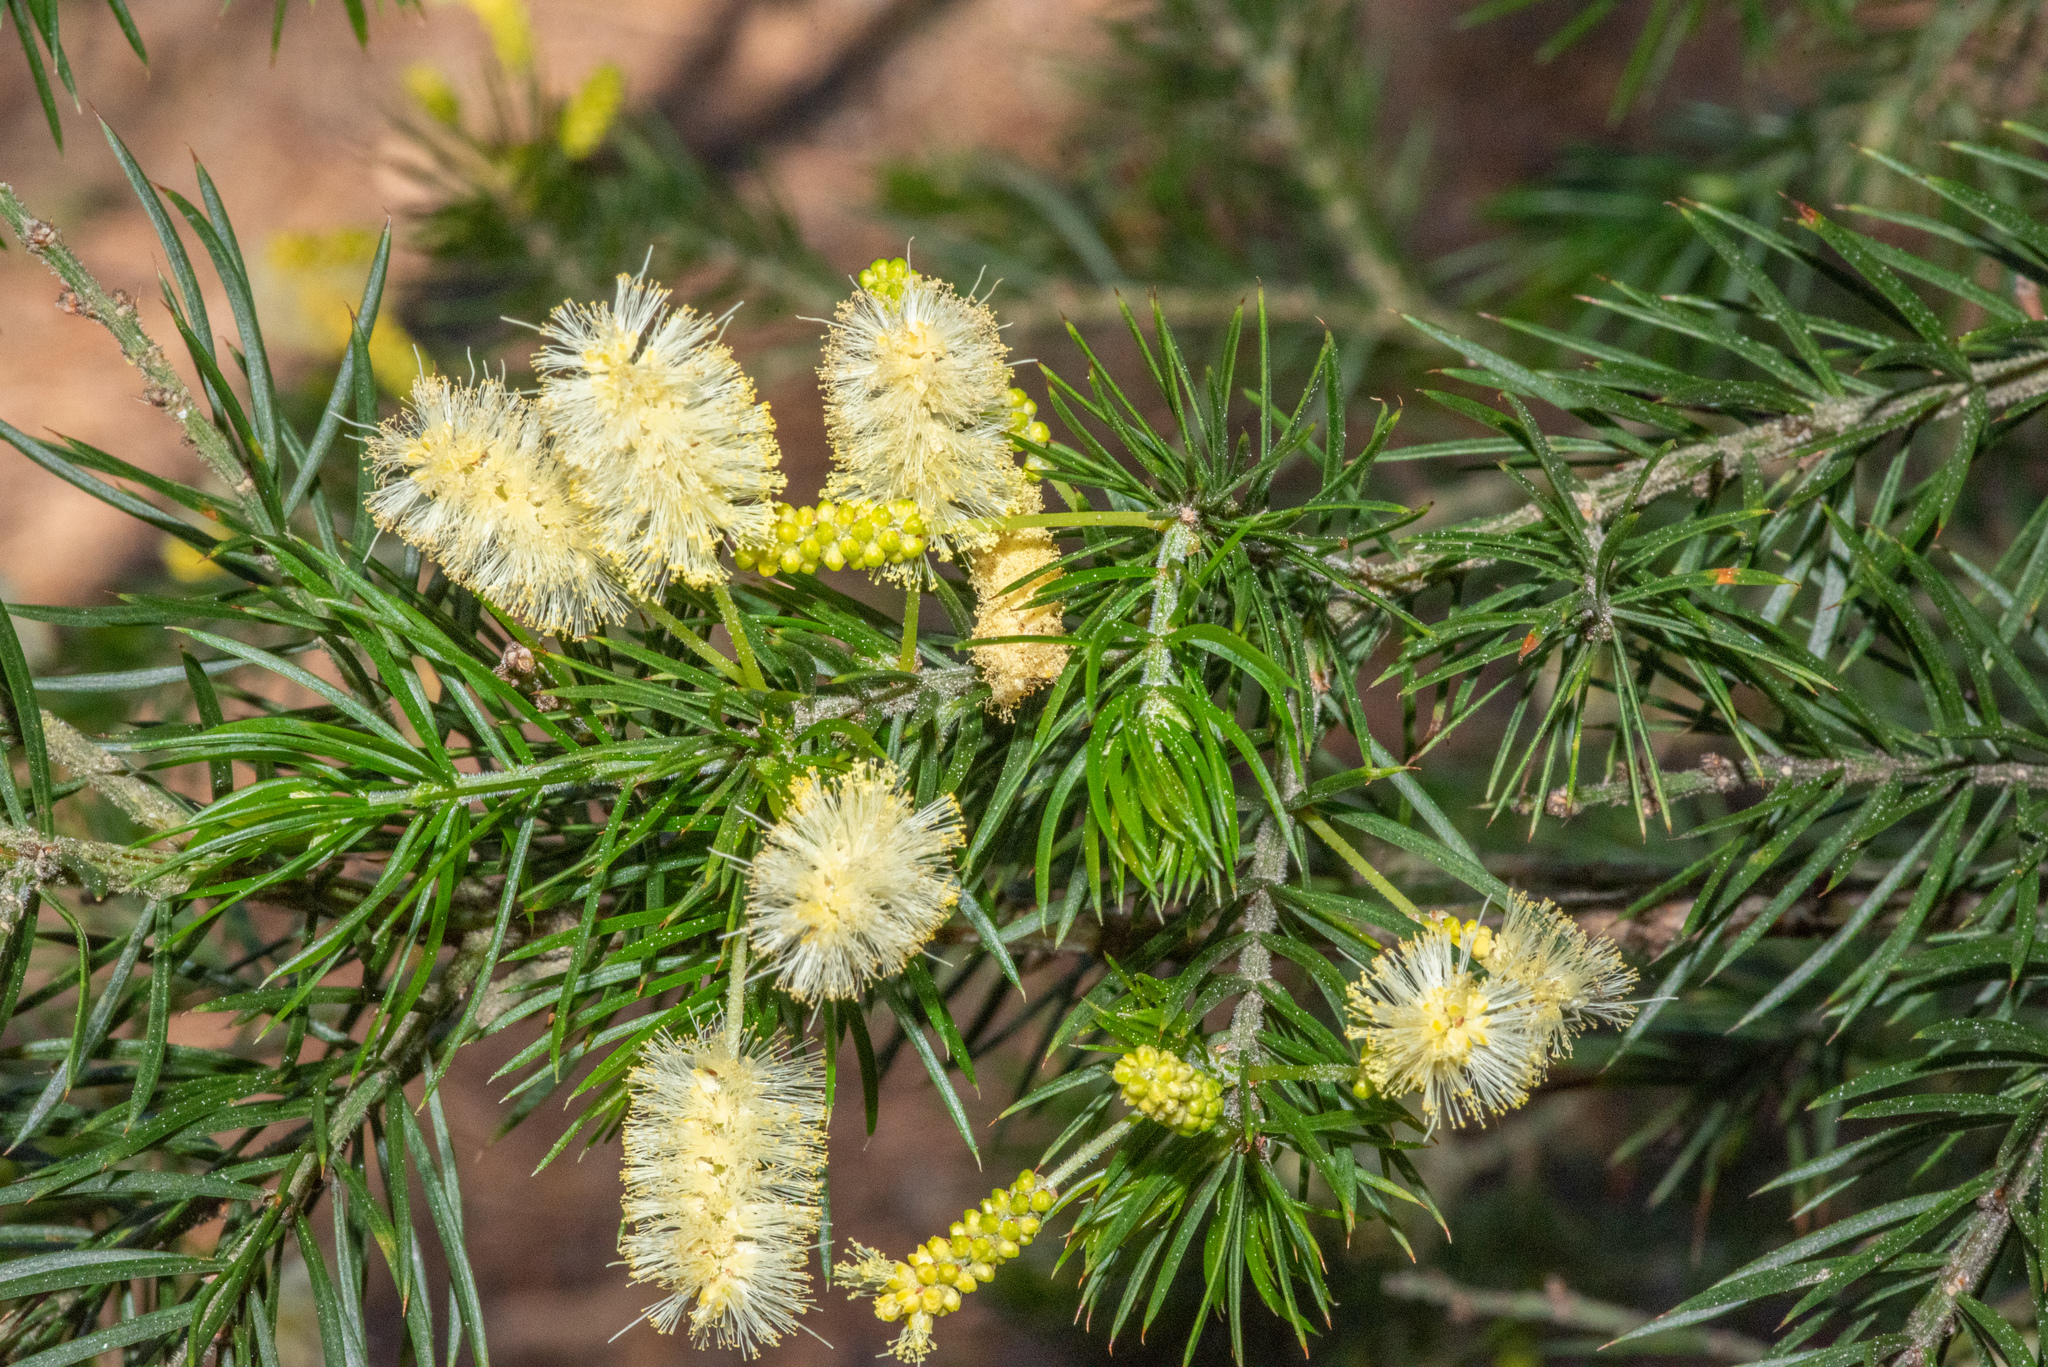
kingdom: Plantae
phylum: Tracheophyta
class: Magnoliopsida
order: Fabales
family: Fabaceae
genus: Acacia
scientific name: Acacia verticillata
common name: Prickly moses
